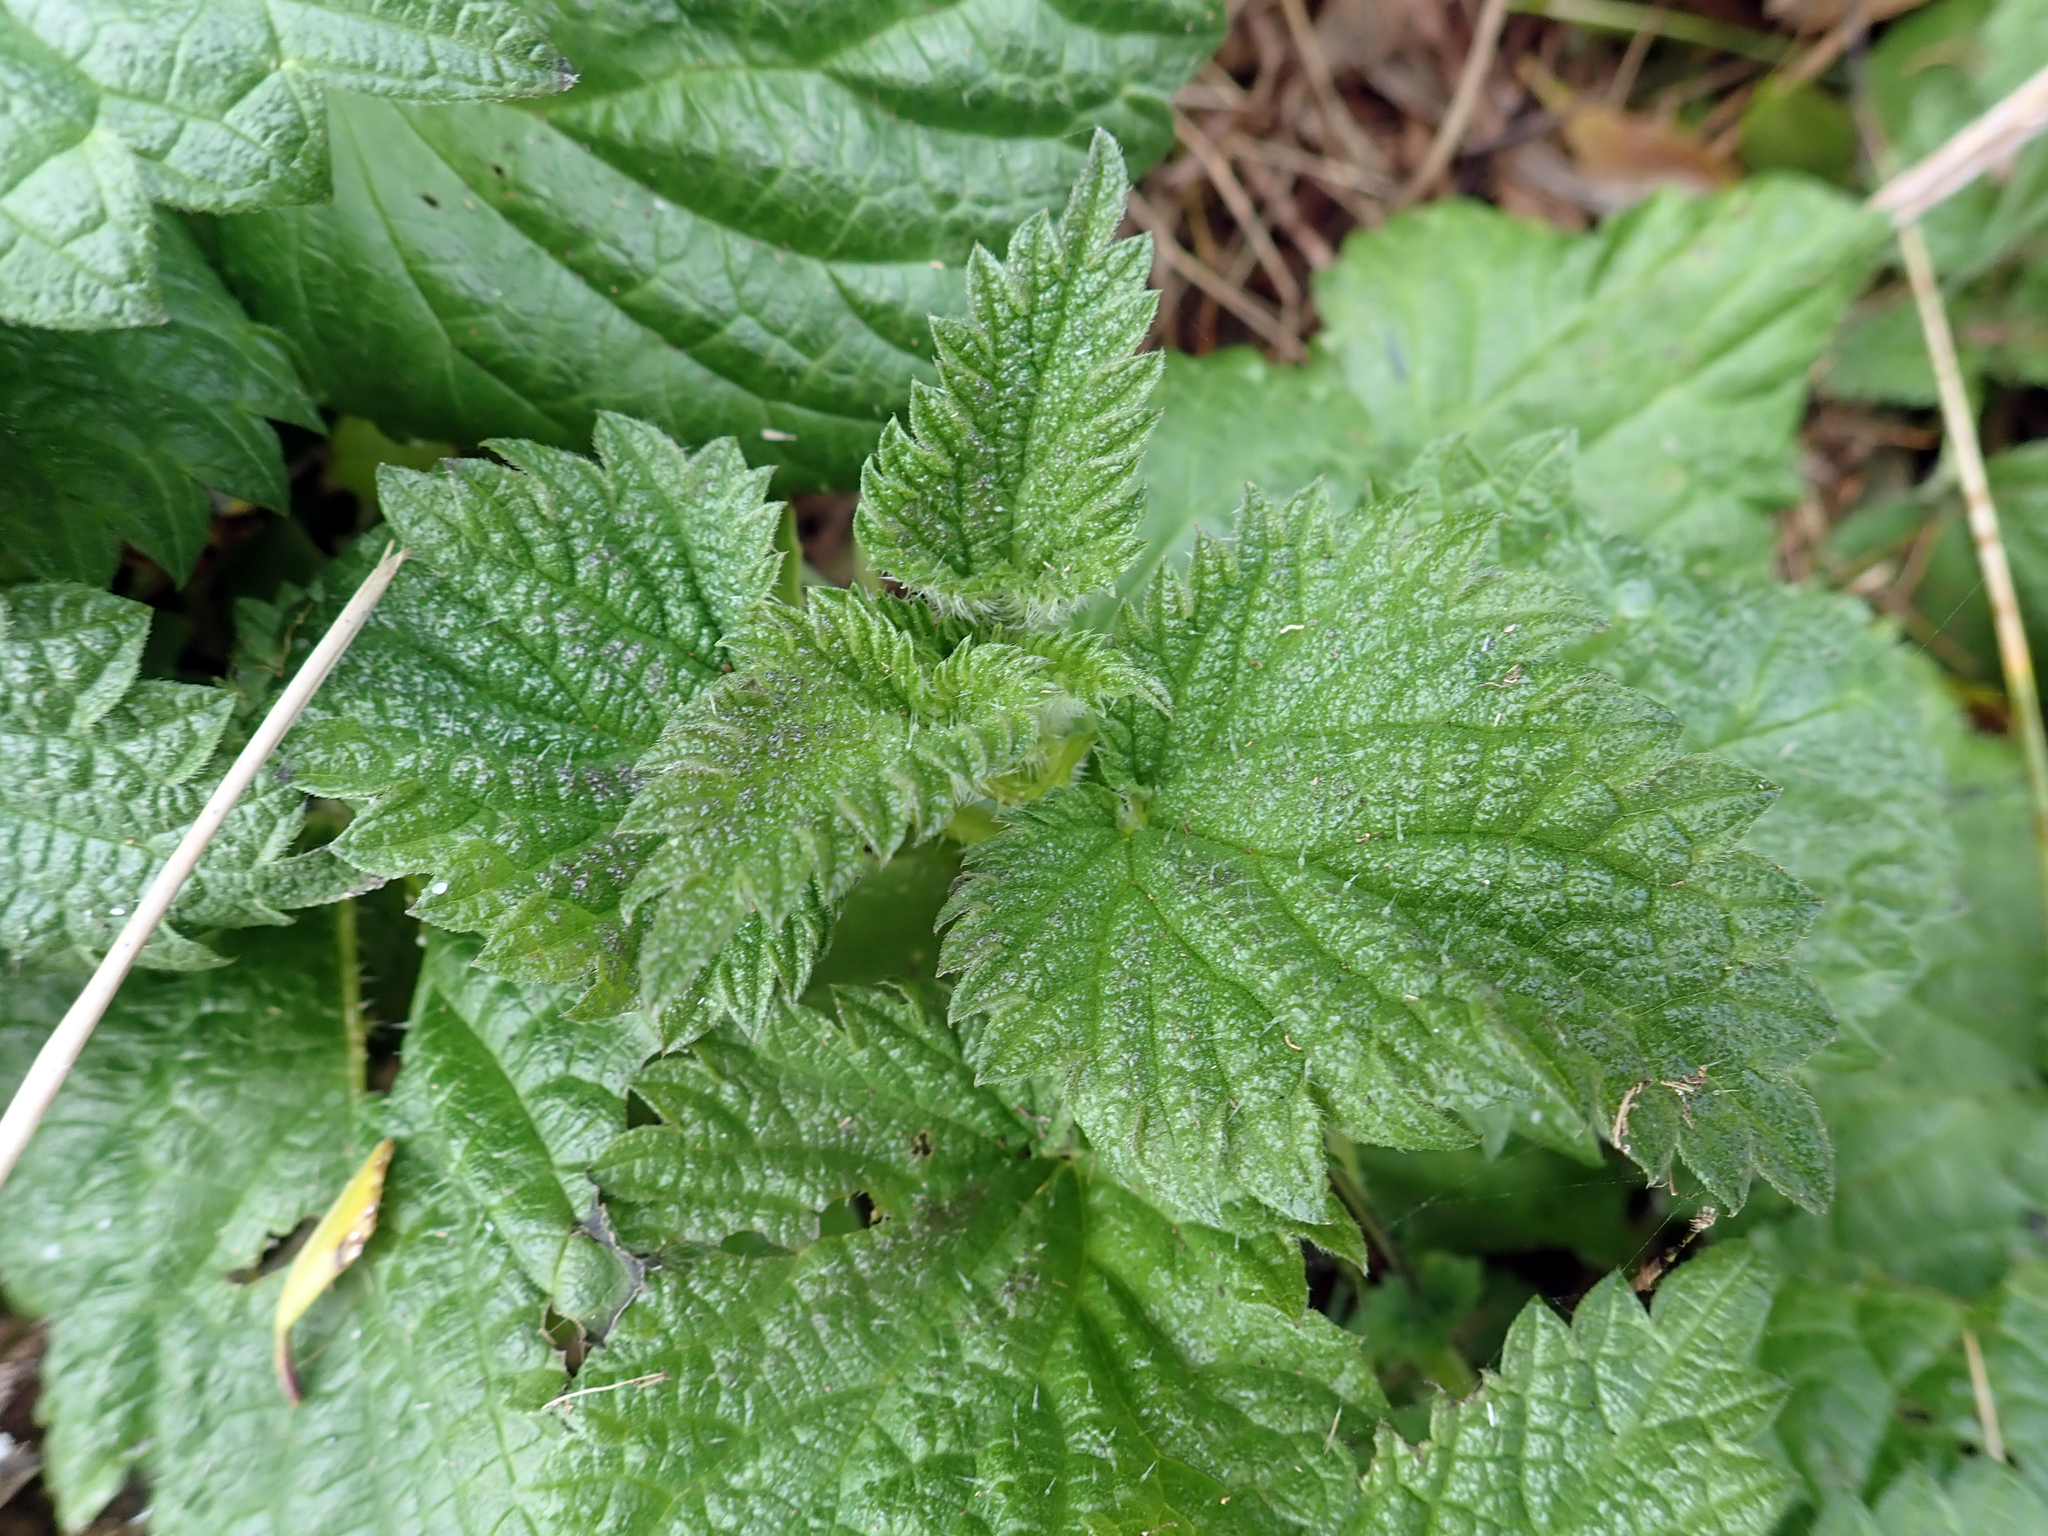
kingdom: Plantae
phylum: Tracheophyta
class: Magnoliopsida
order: Rosales
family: Urticaceae
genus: Urtica
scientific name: Urtica australis
